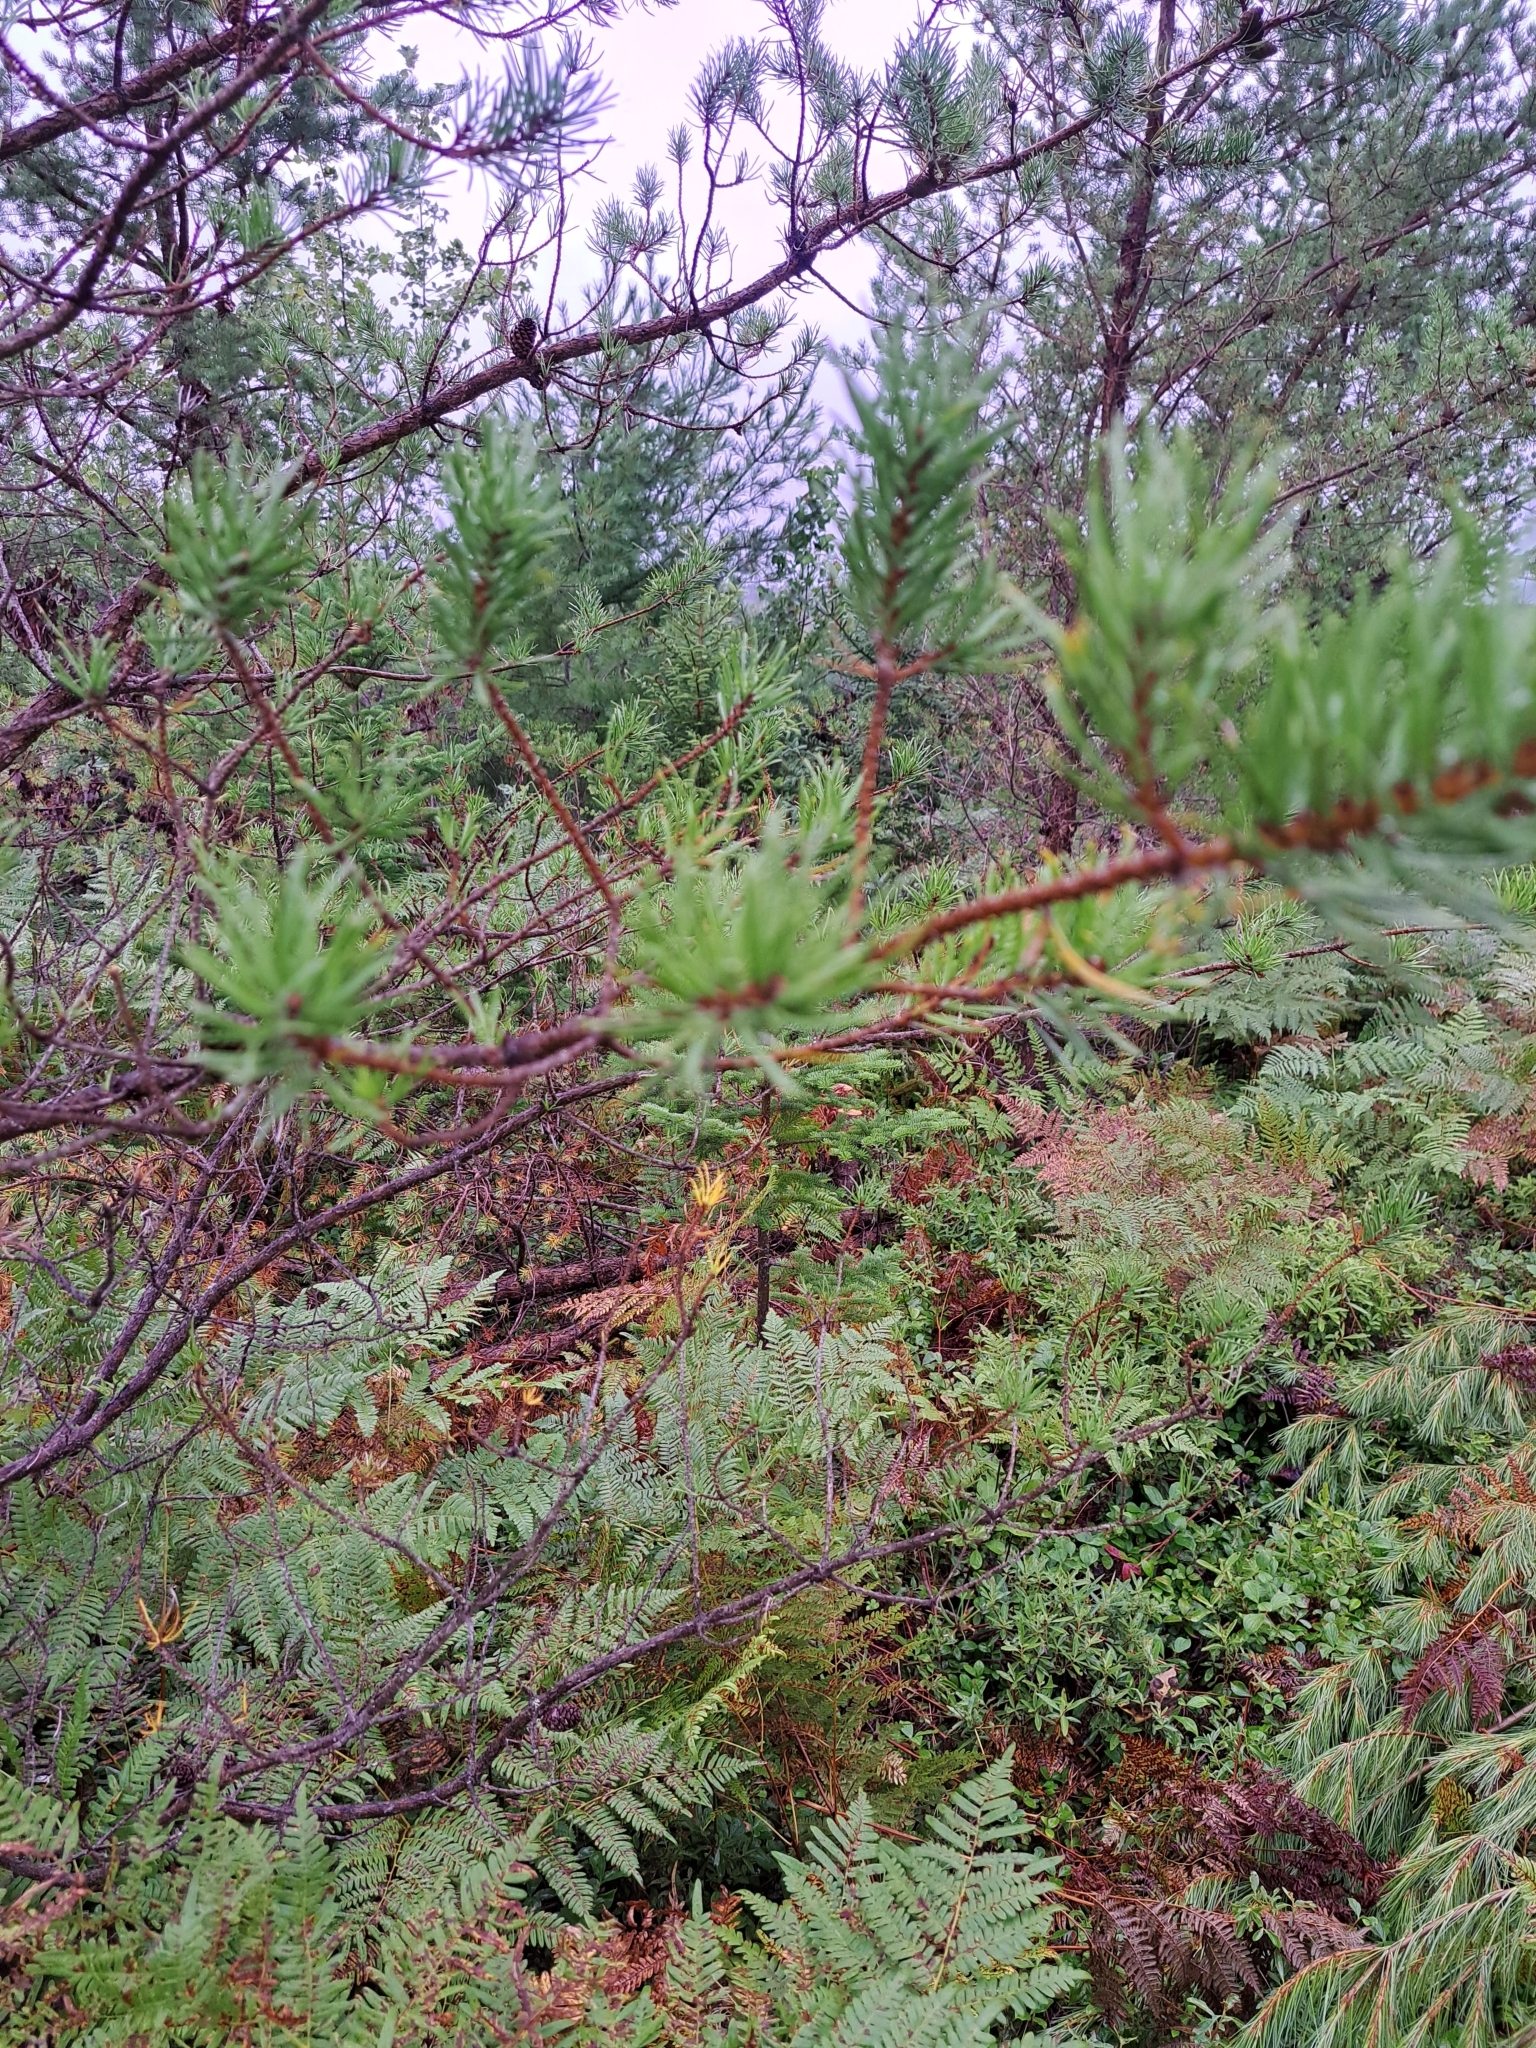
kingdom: Plantae
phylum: Tracheophyta
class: Pinopsida
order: Pinales
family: Pinaceae
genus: Pinus
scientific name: Pinus banksiana
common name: Jack pine
